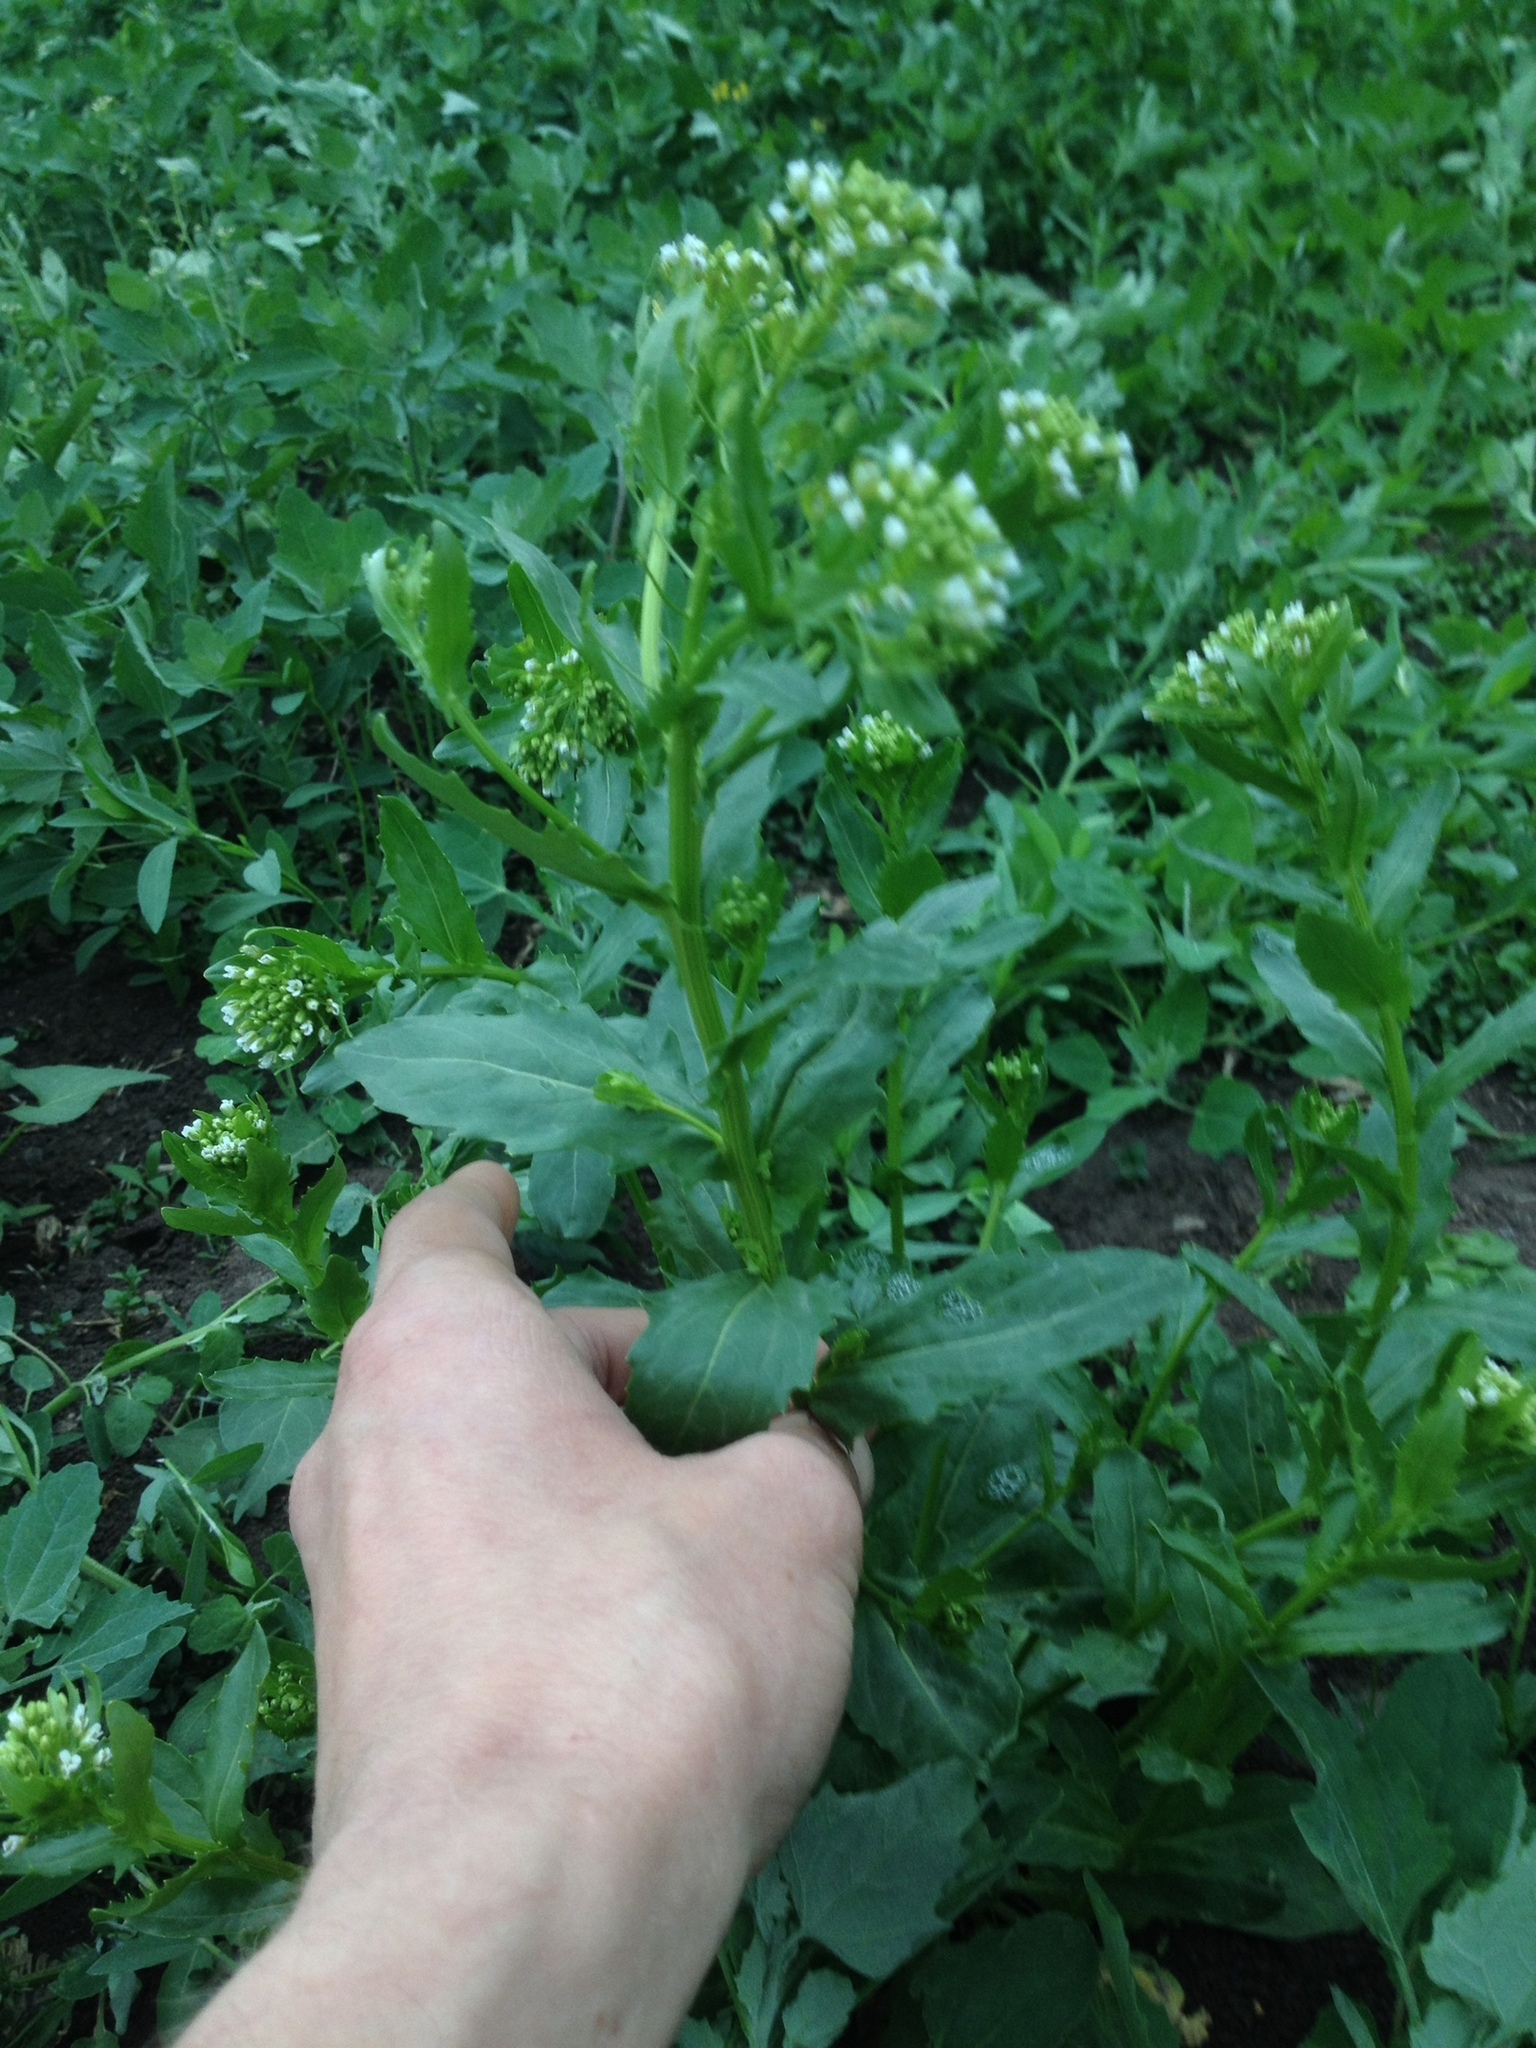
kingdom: Plantae
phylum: Tracheophyta
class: Magnoliopsida
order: Brassicales
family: Brassicaceae
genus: Thlaspi
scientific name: Thlaspi arvense
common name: Field pennycress
